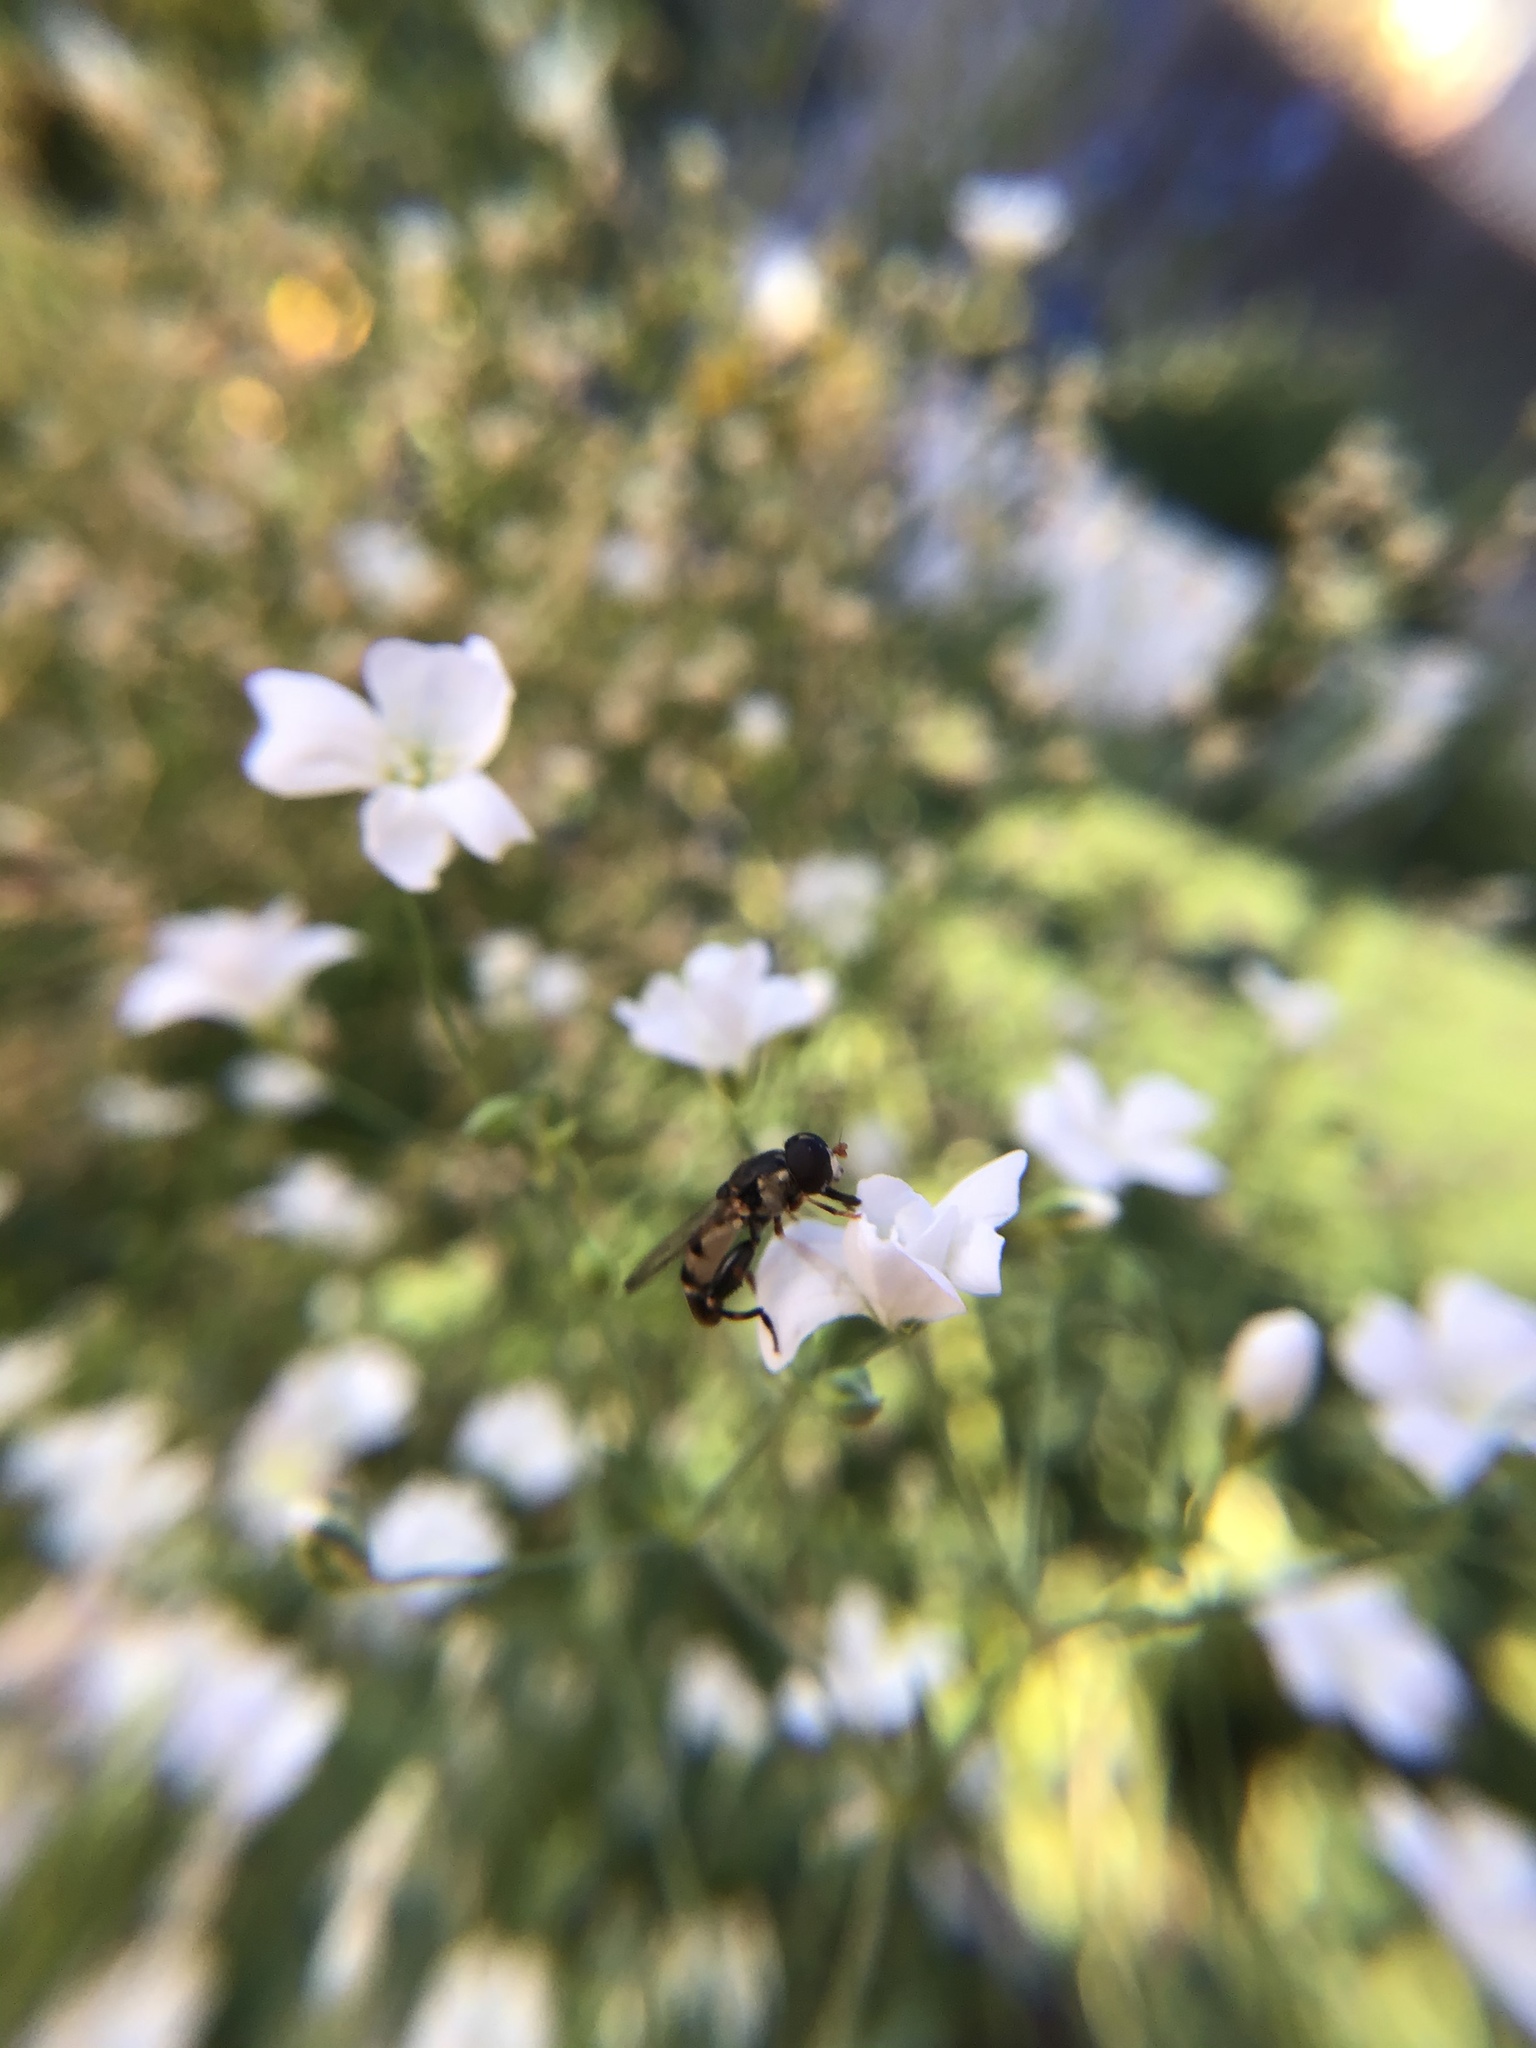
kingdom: Animalia
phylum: Arthropoda
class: Insecta
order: Diptera
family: Syrphidae
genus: Syritta
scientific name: Syritta pipiens
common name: Hover fly
